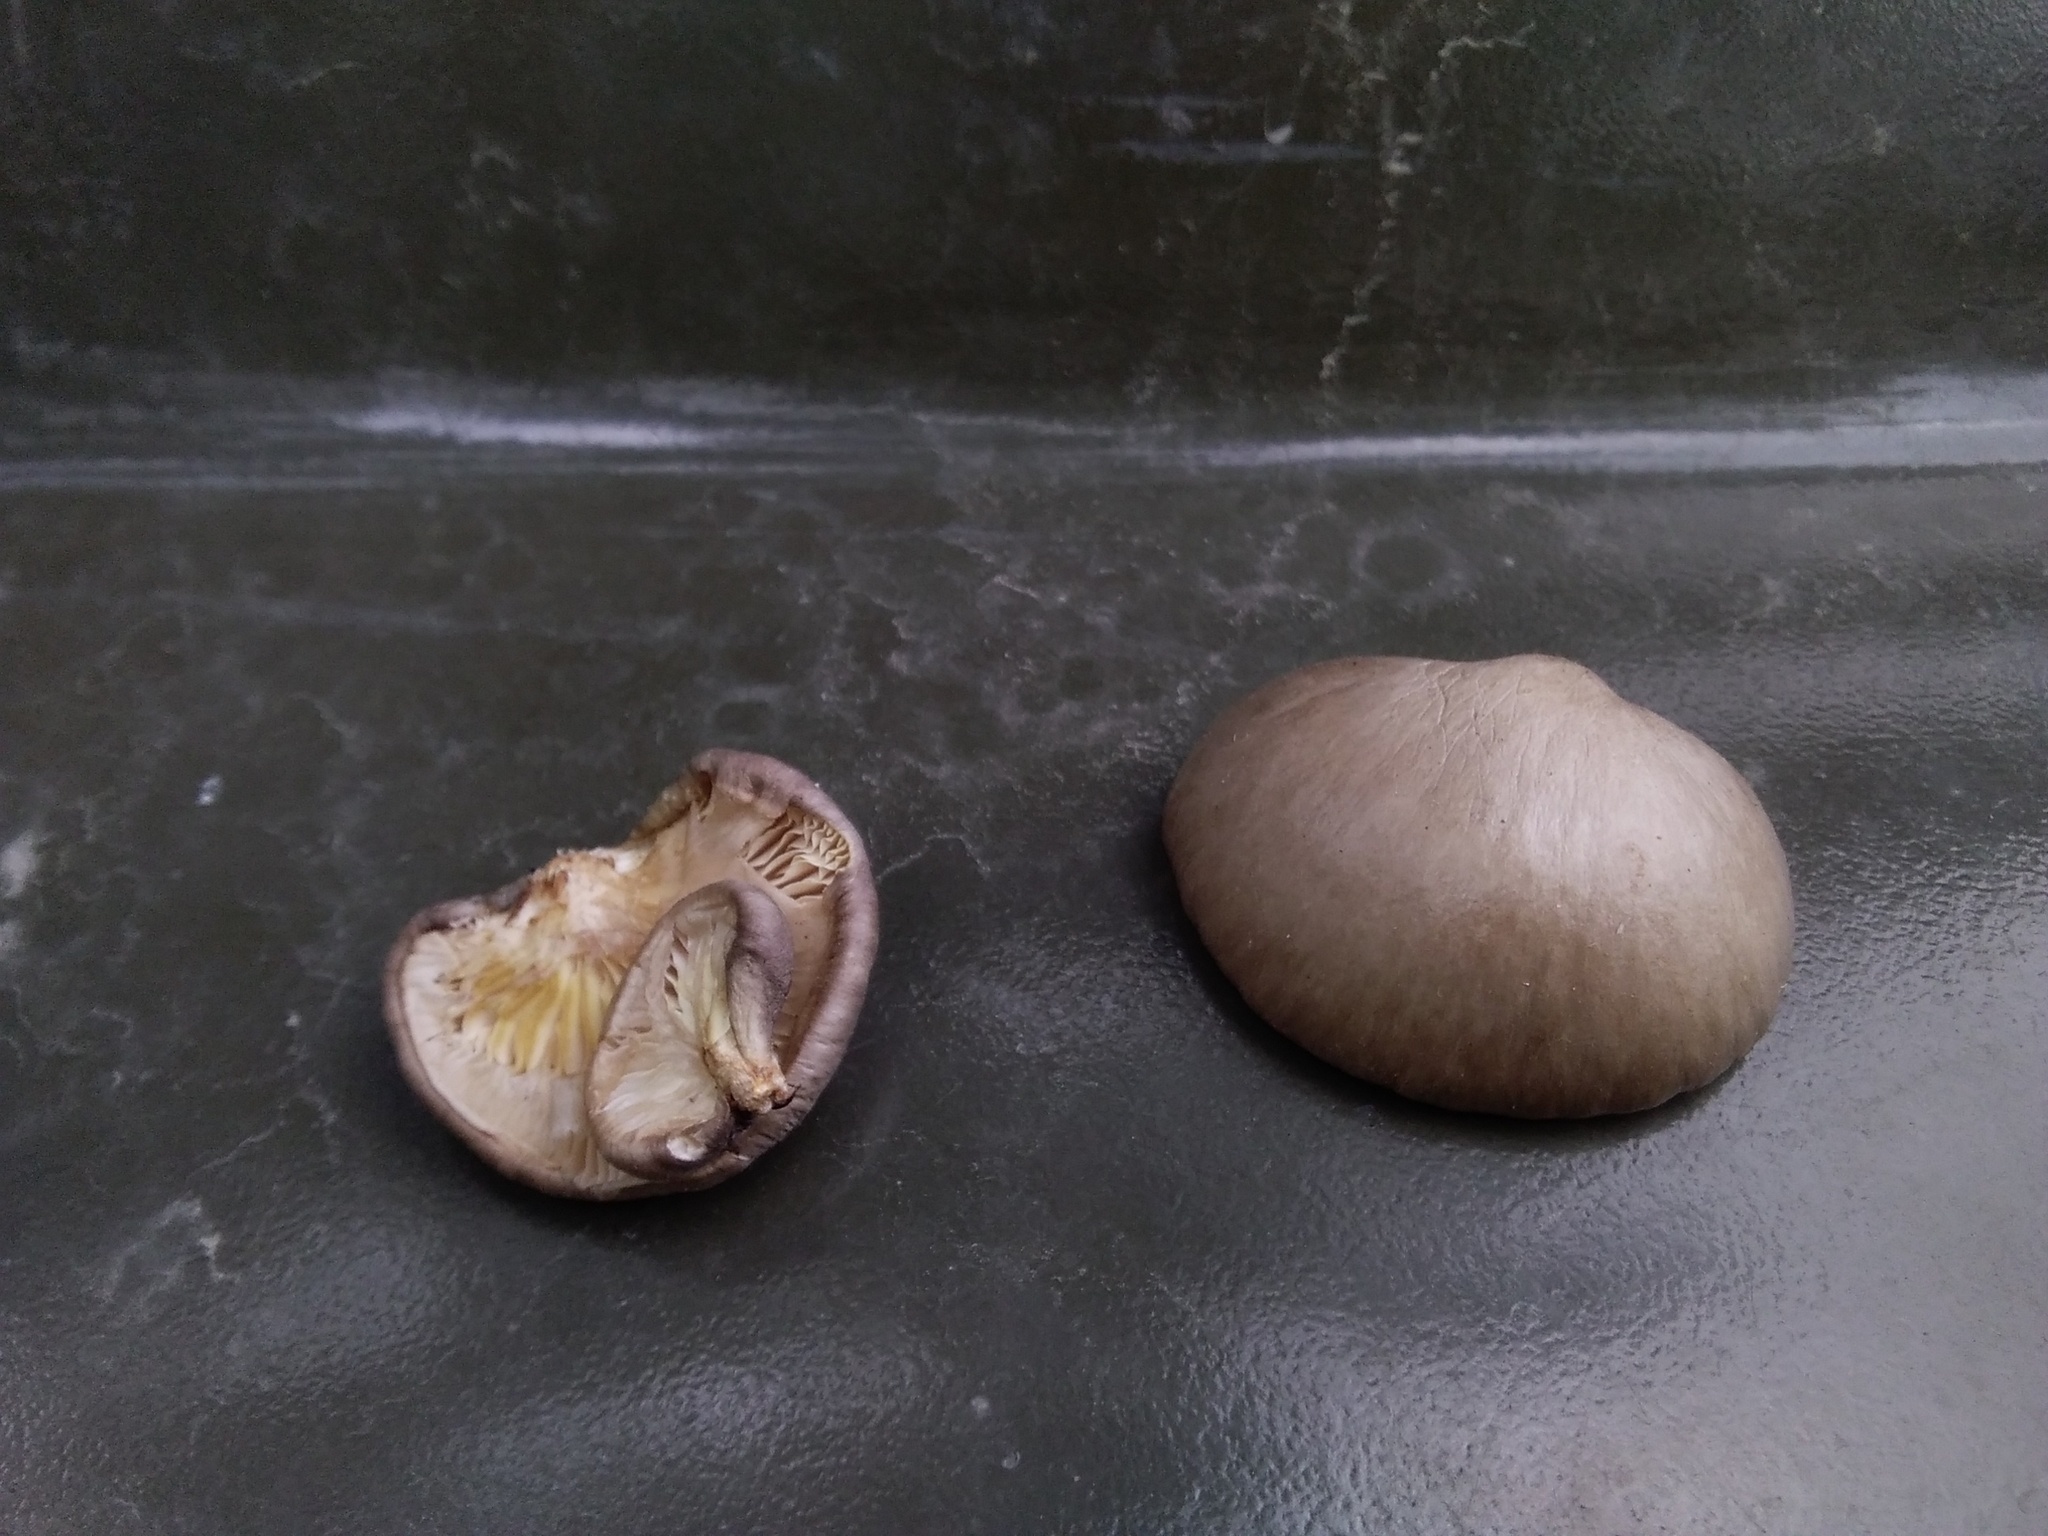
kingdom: Fungi
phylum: Basidiomycota
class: Agaricomycetes
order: Agaricales
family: Pleurotaceae
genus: Pleurotus
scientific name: Pleurotus calyptratus
